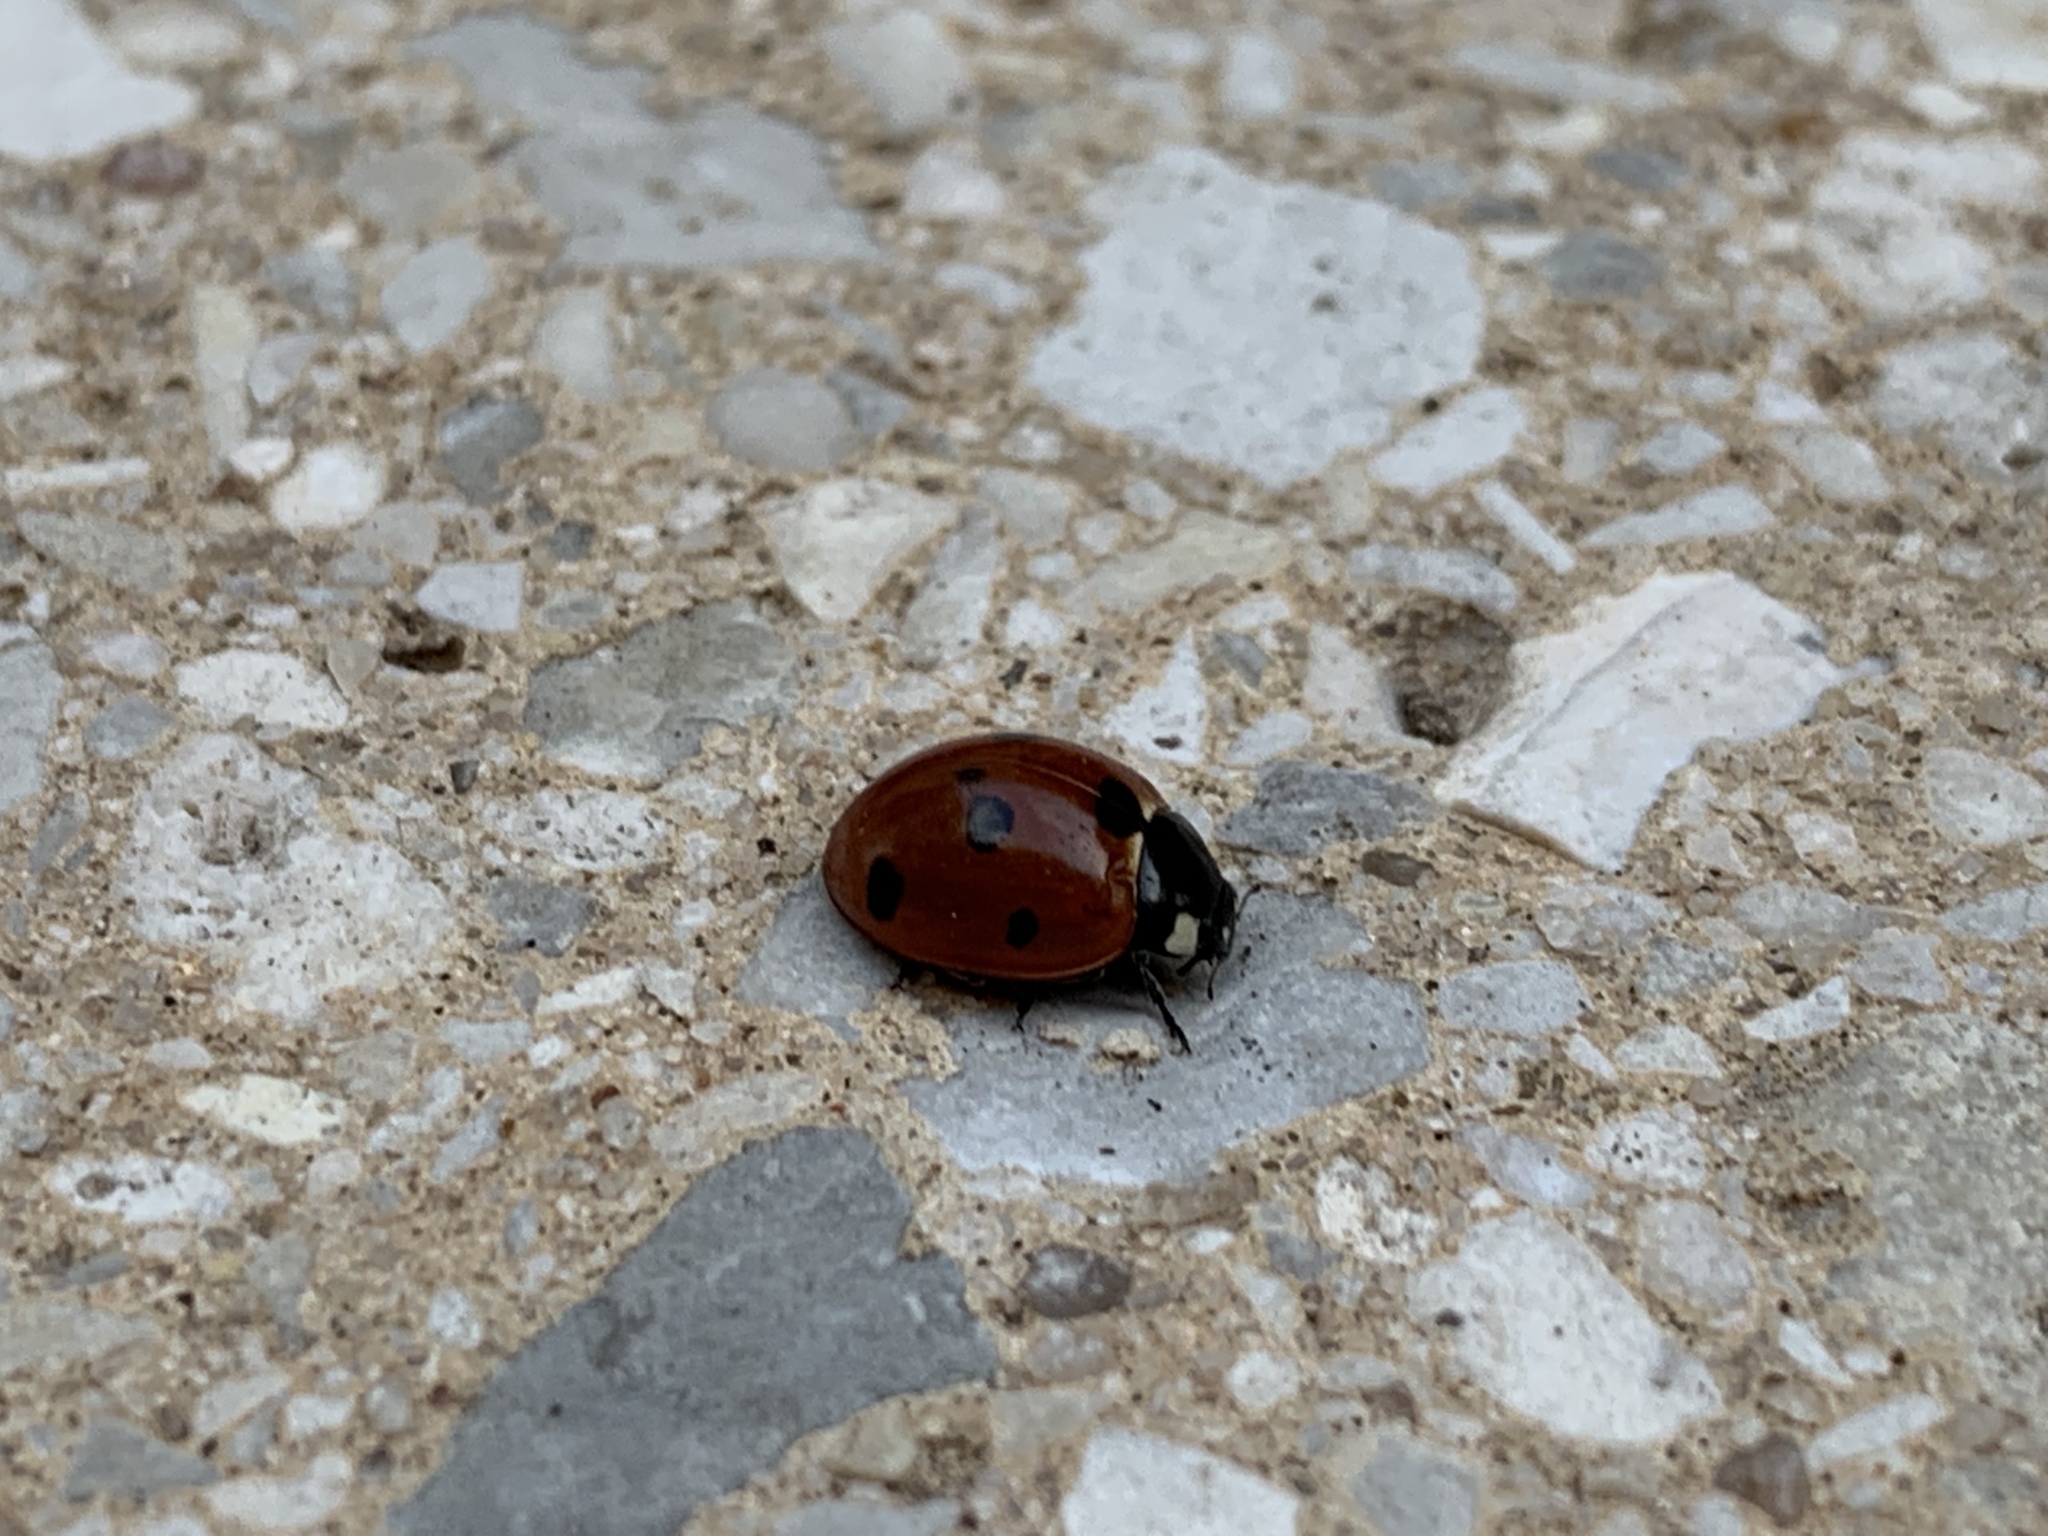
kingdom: Animalia
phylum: Arthropoda
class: Insecta
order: Coleoptera
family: Coccinellidae
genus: Coccinella
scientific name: Coccinella septempunctata
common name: Sevenspotted lady beetle
